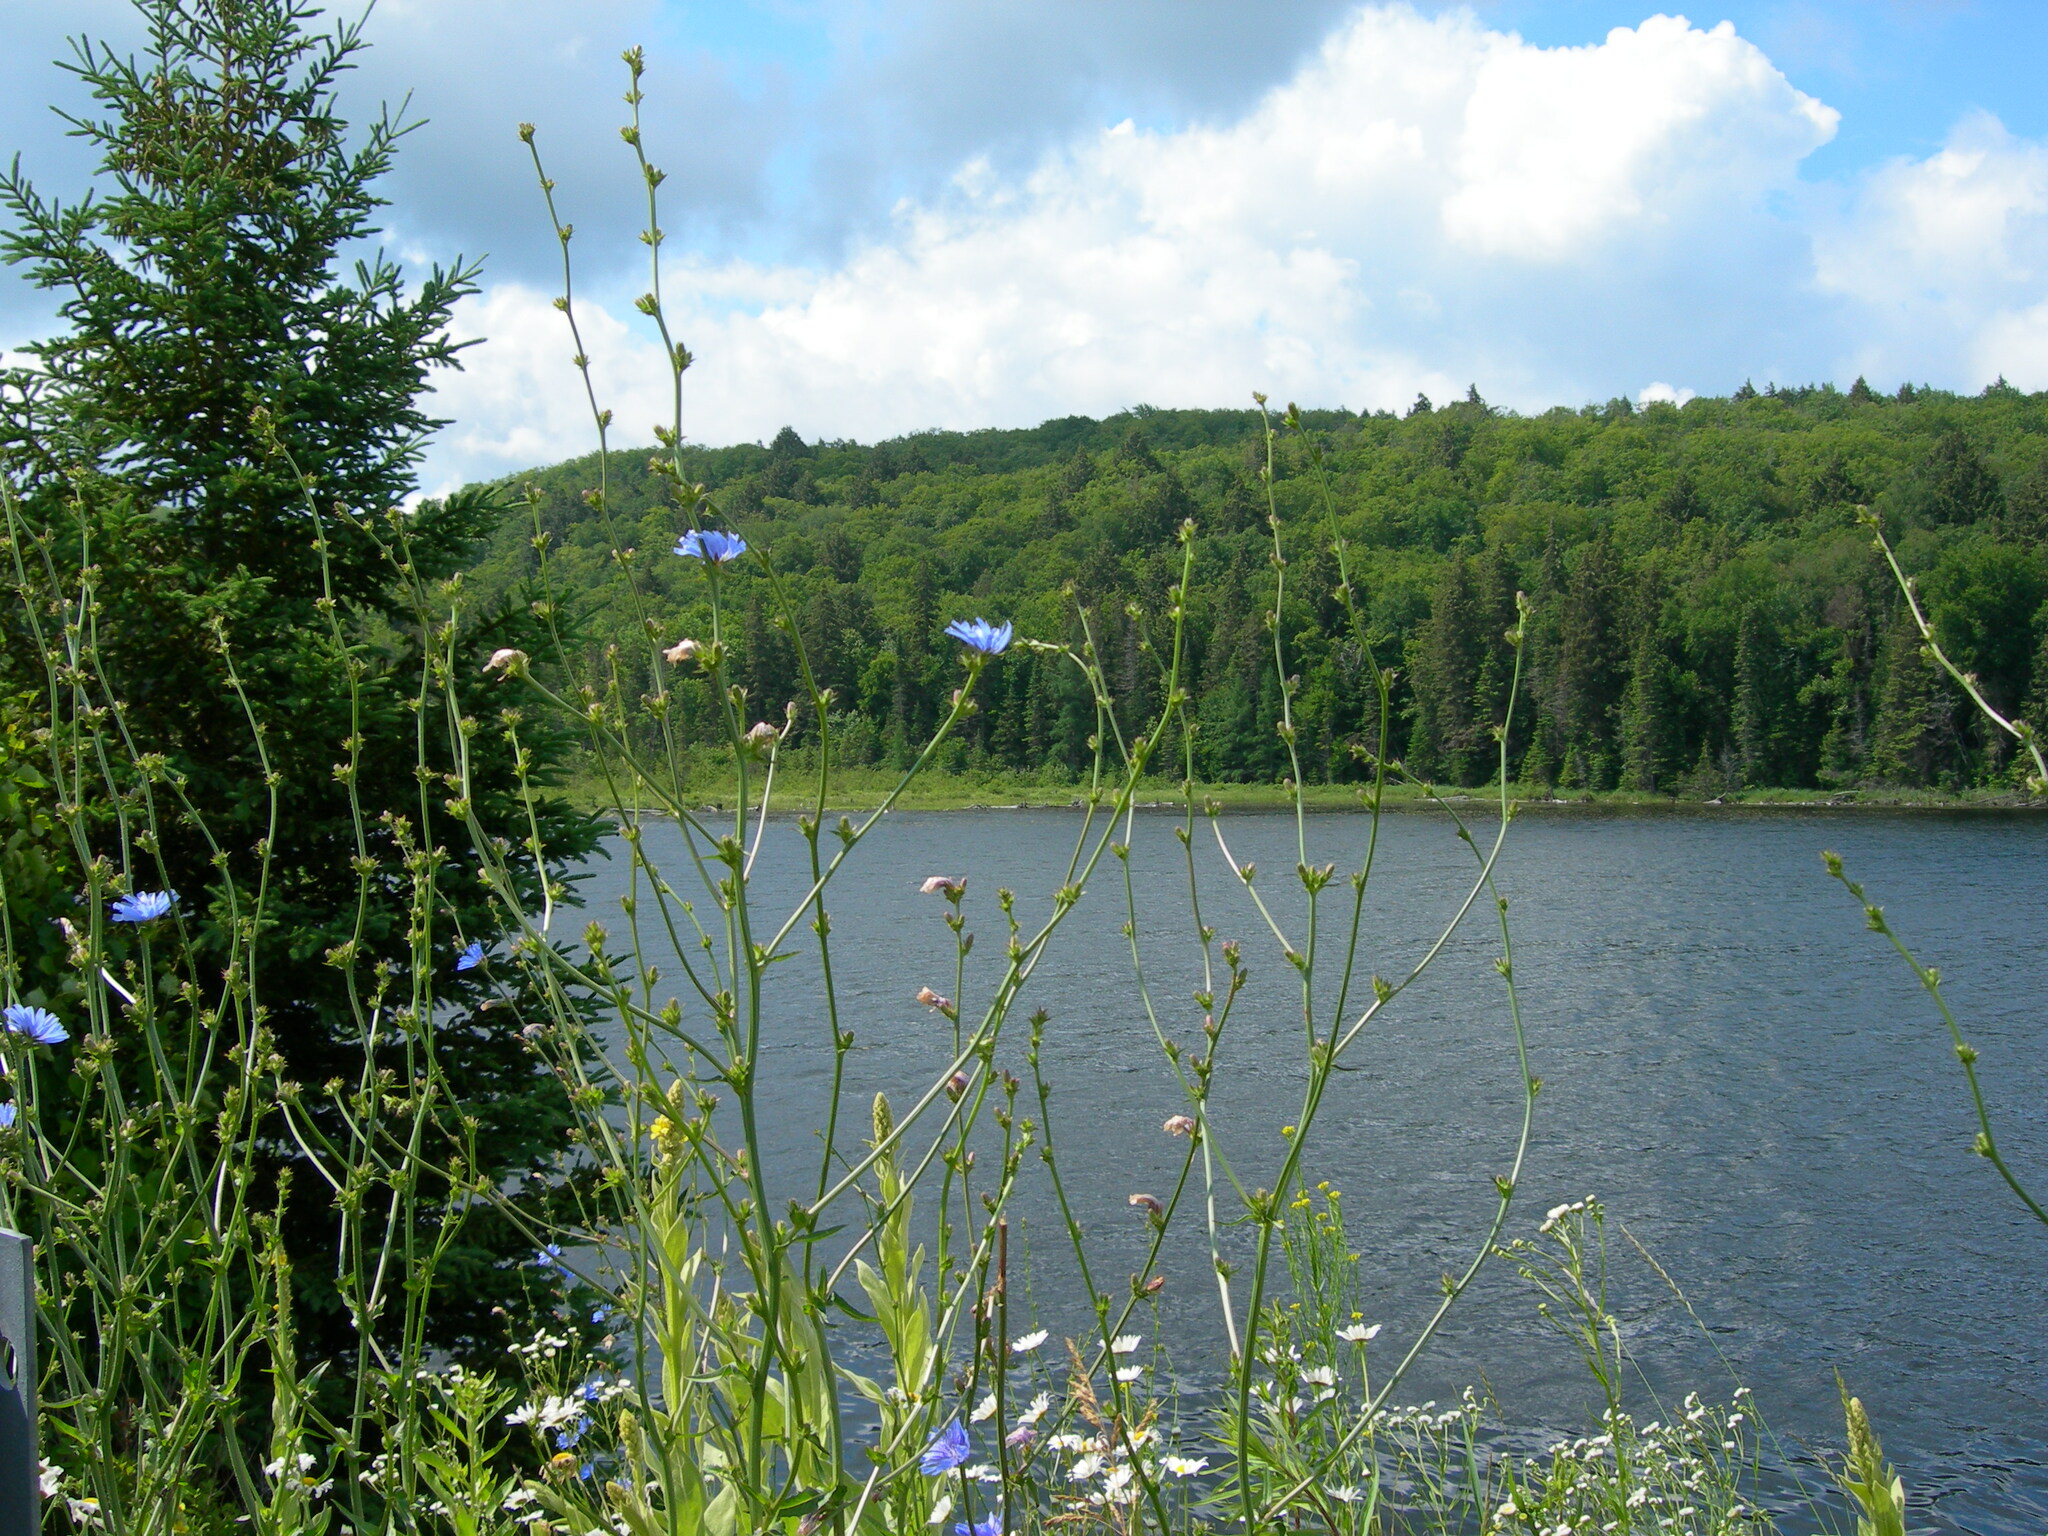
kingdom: Plantae
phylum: Tracheophyta
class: Magnoliopsida
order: Asterales
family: Asteraceae
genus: Cichorium
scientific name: Cichorium intybus
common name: Chicory
